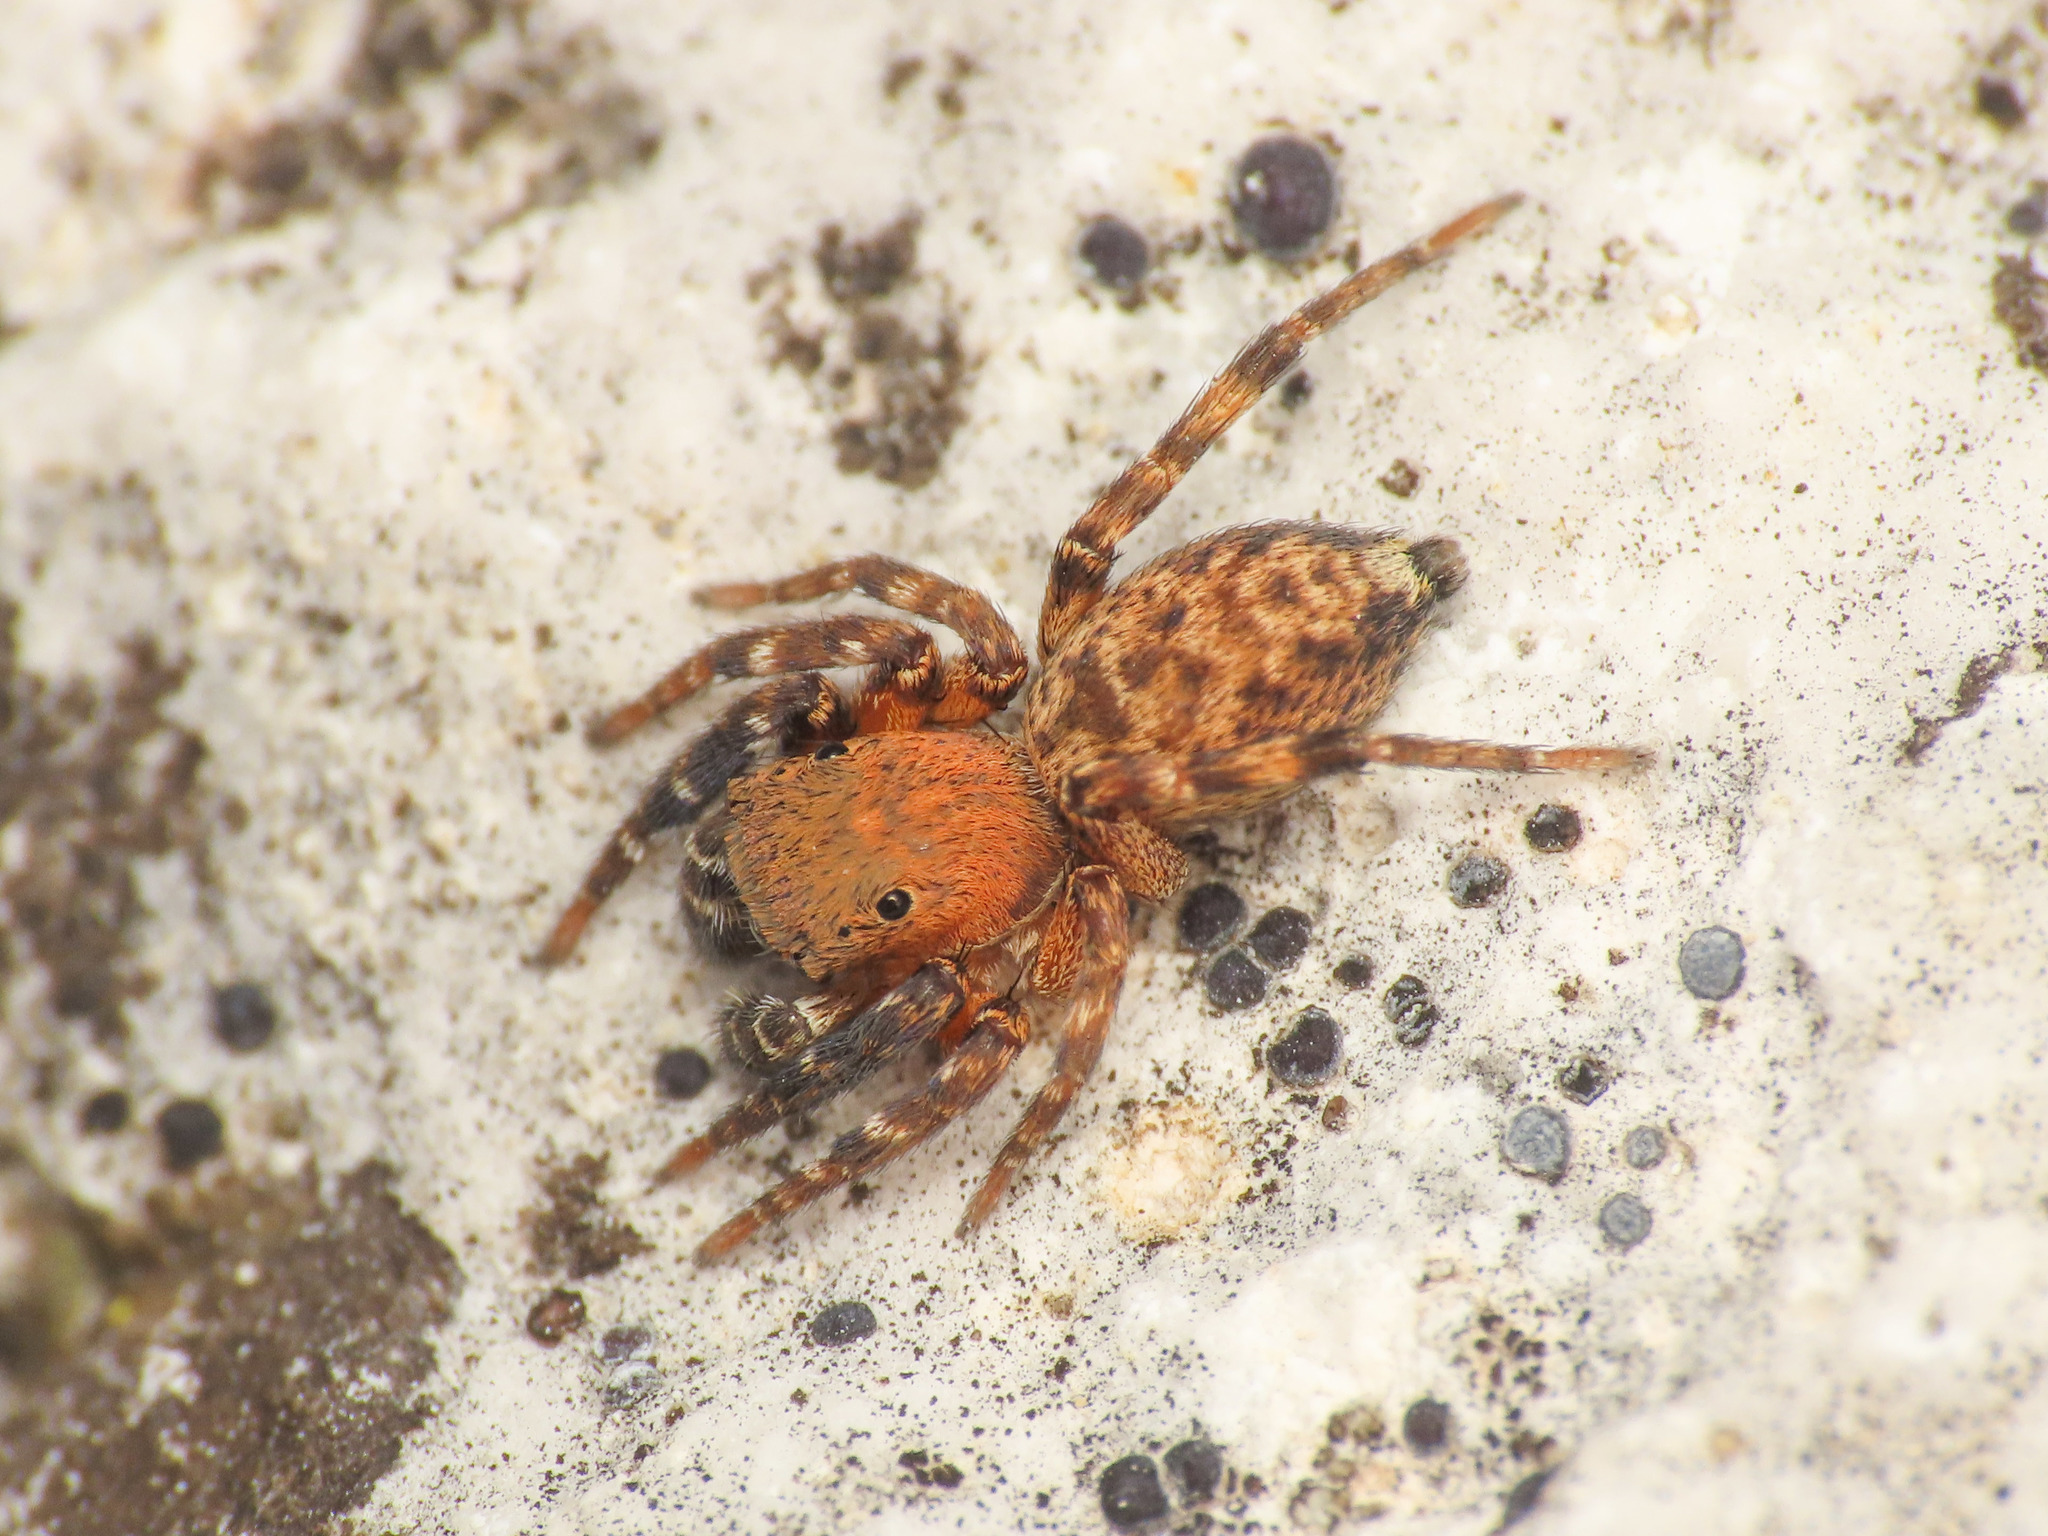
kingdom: Animalia
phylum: Arthropoda
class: Arachnida
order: Araneae
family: Salticidae
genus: Cyrba
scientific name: Cyrba algerina
